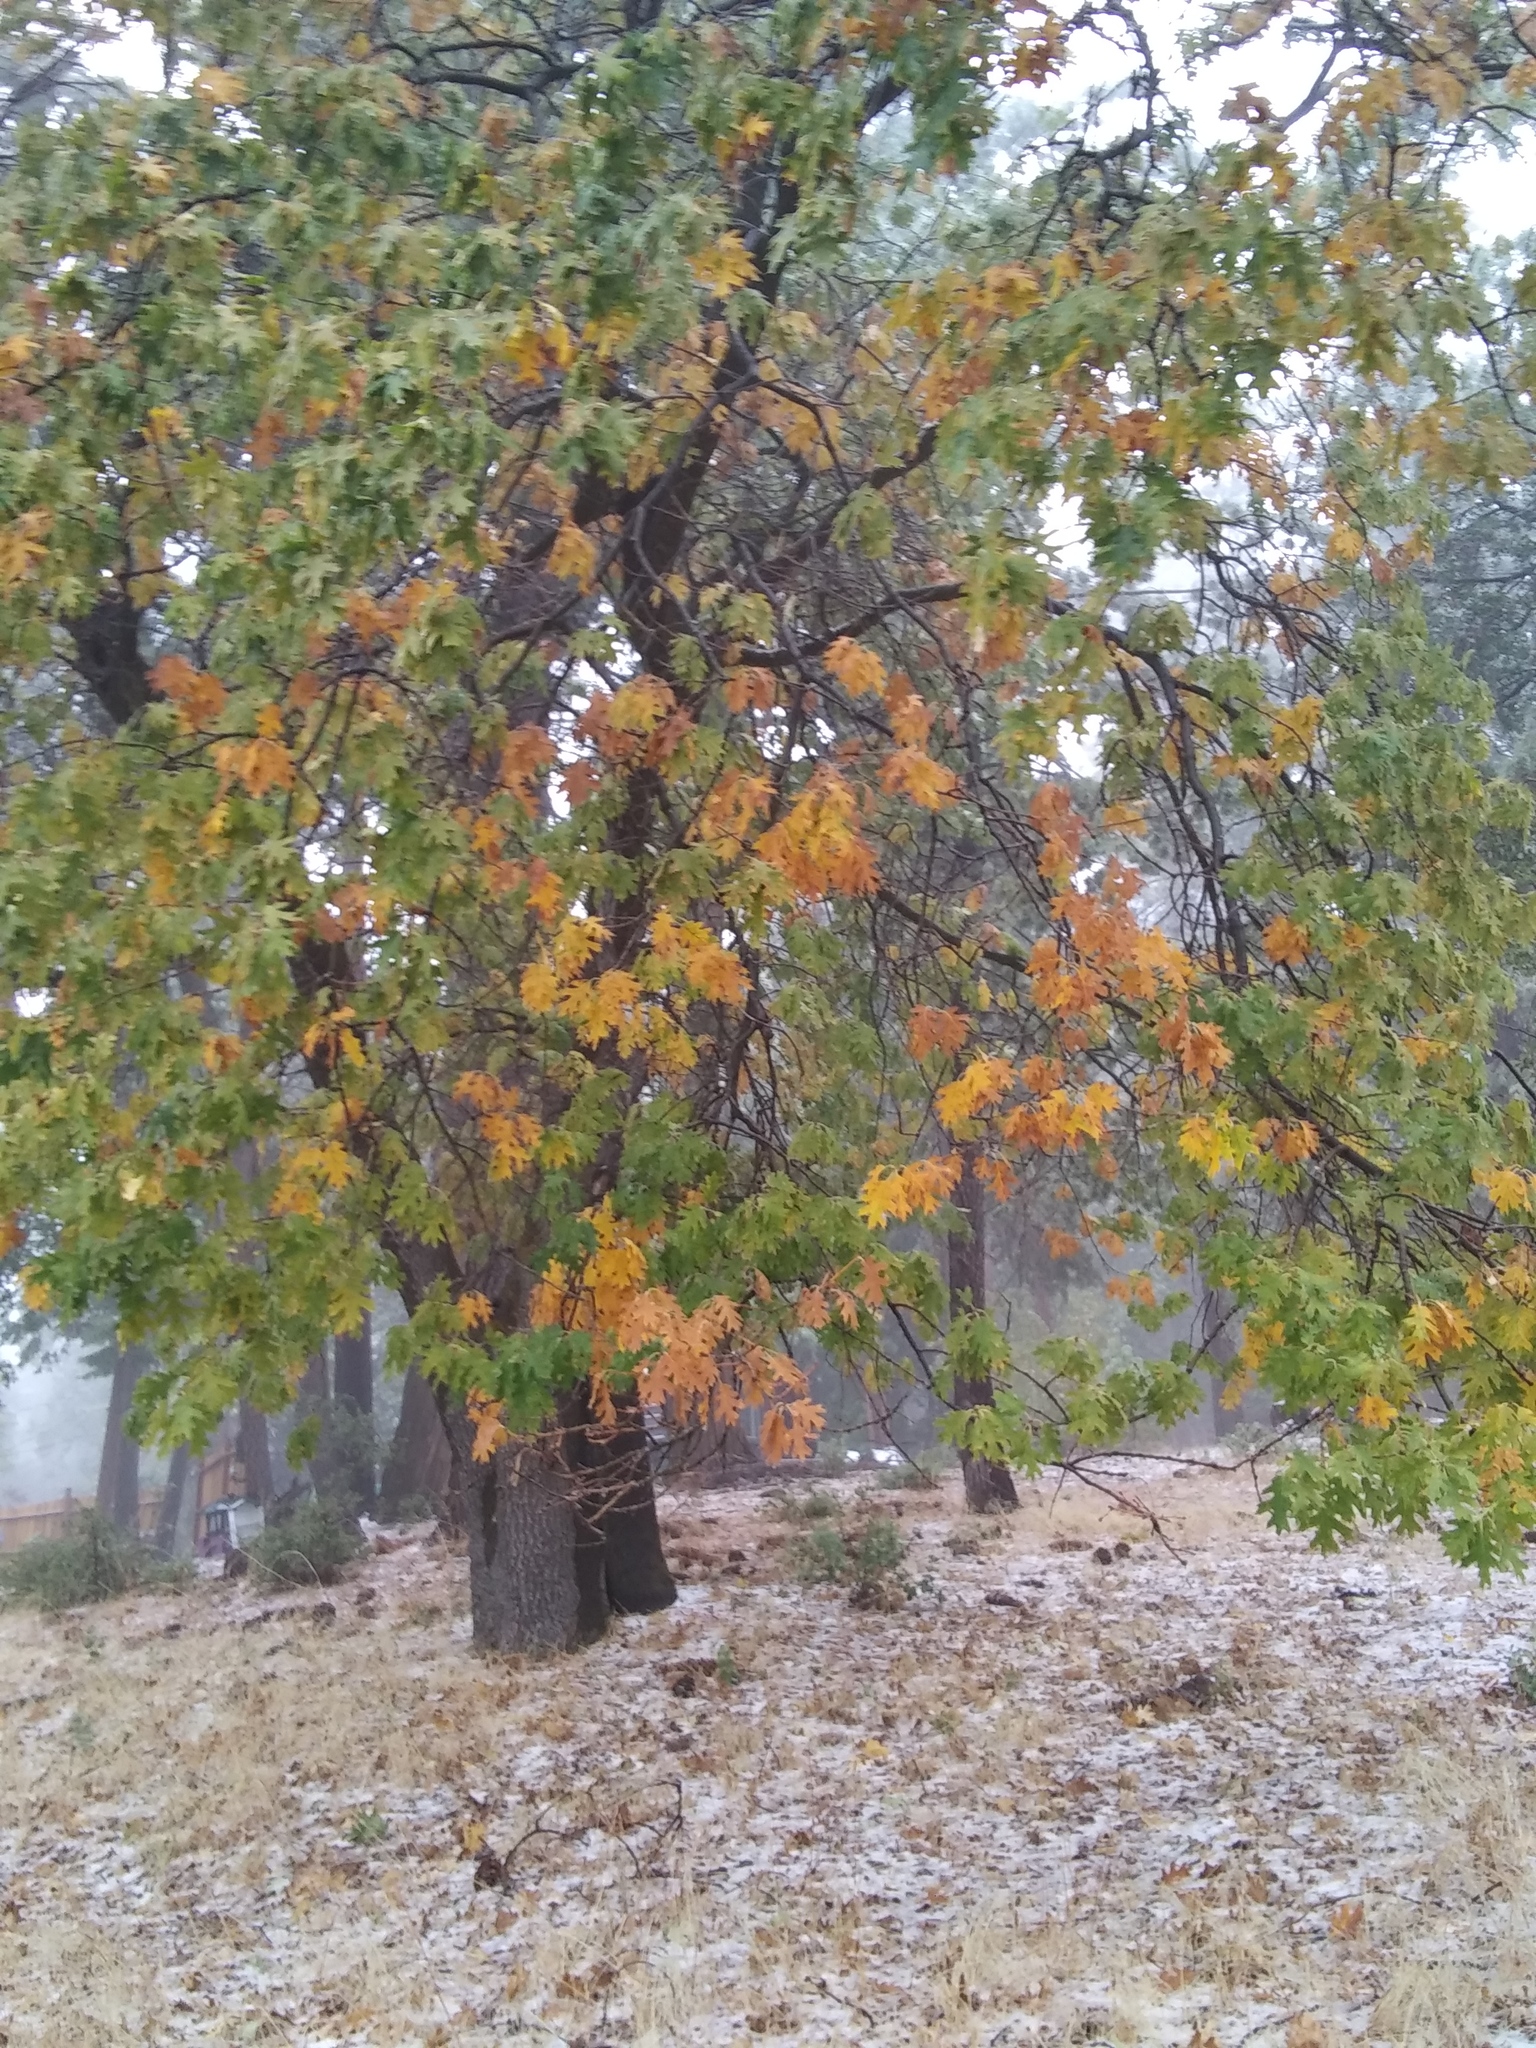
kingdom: Plantae
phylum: Tracheophyta
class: Magnoliopsida
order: Fagales
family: Fagaceae
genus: Quercus
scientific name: Quercus kelloggii
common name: California black oak
